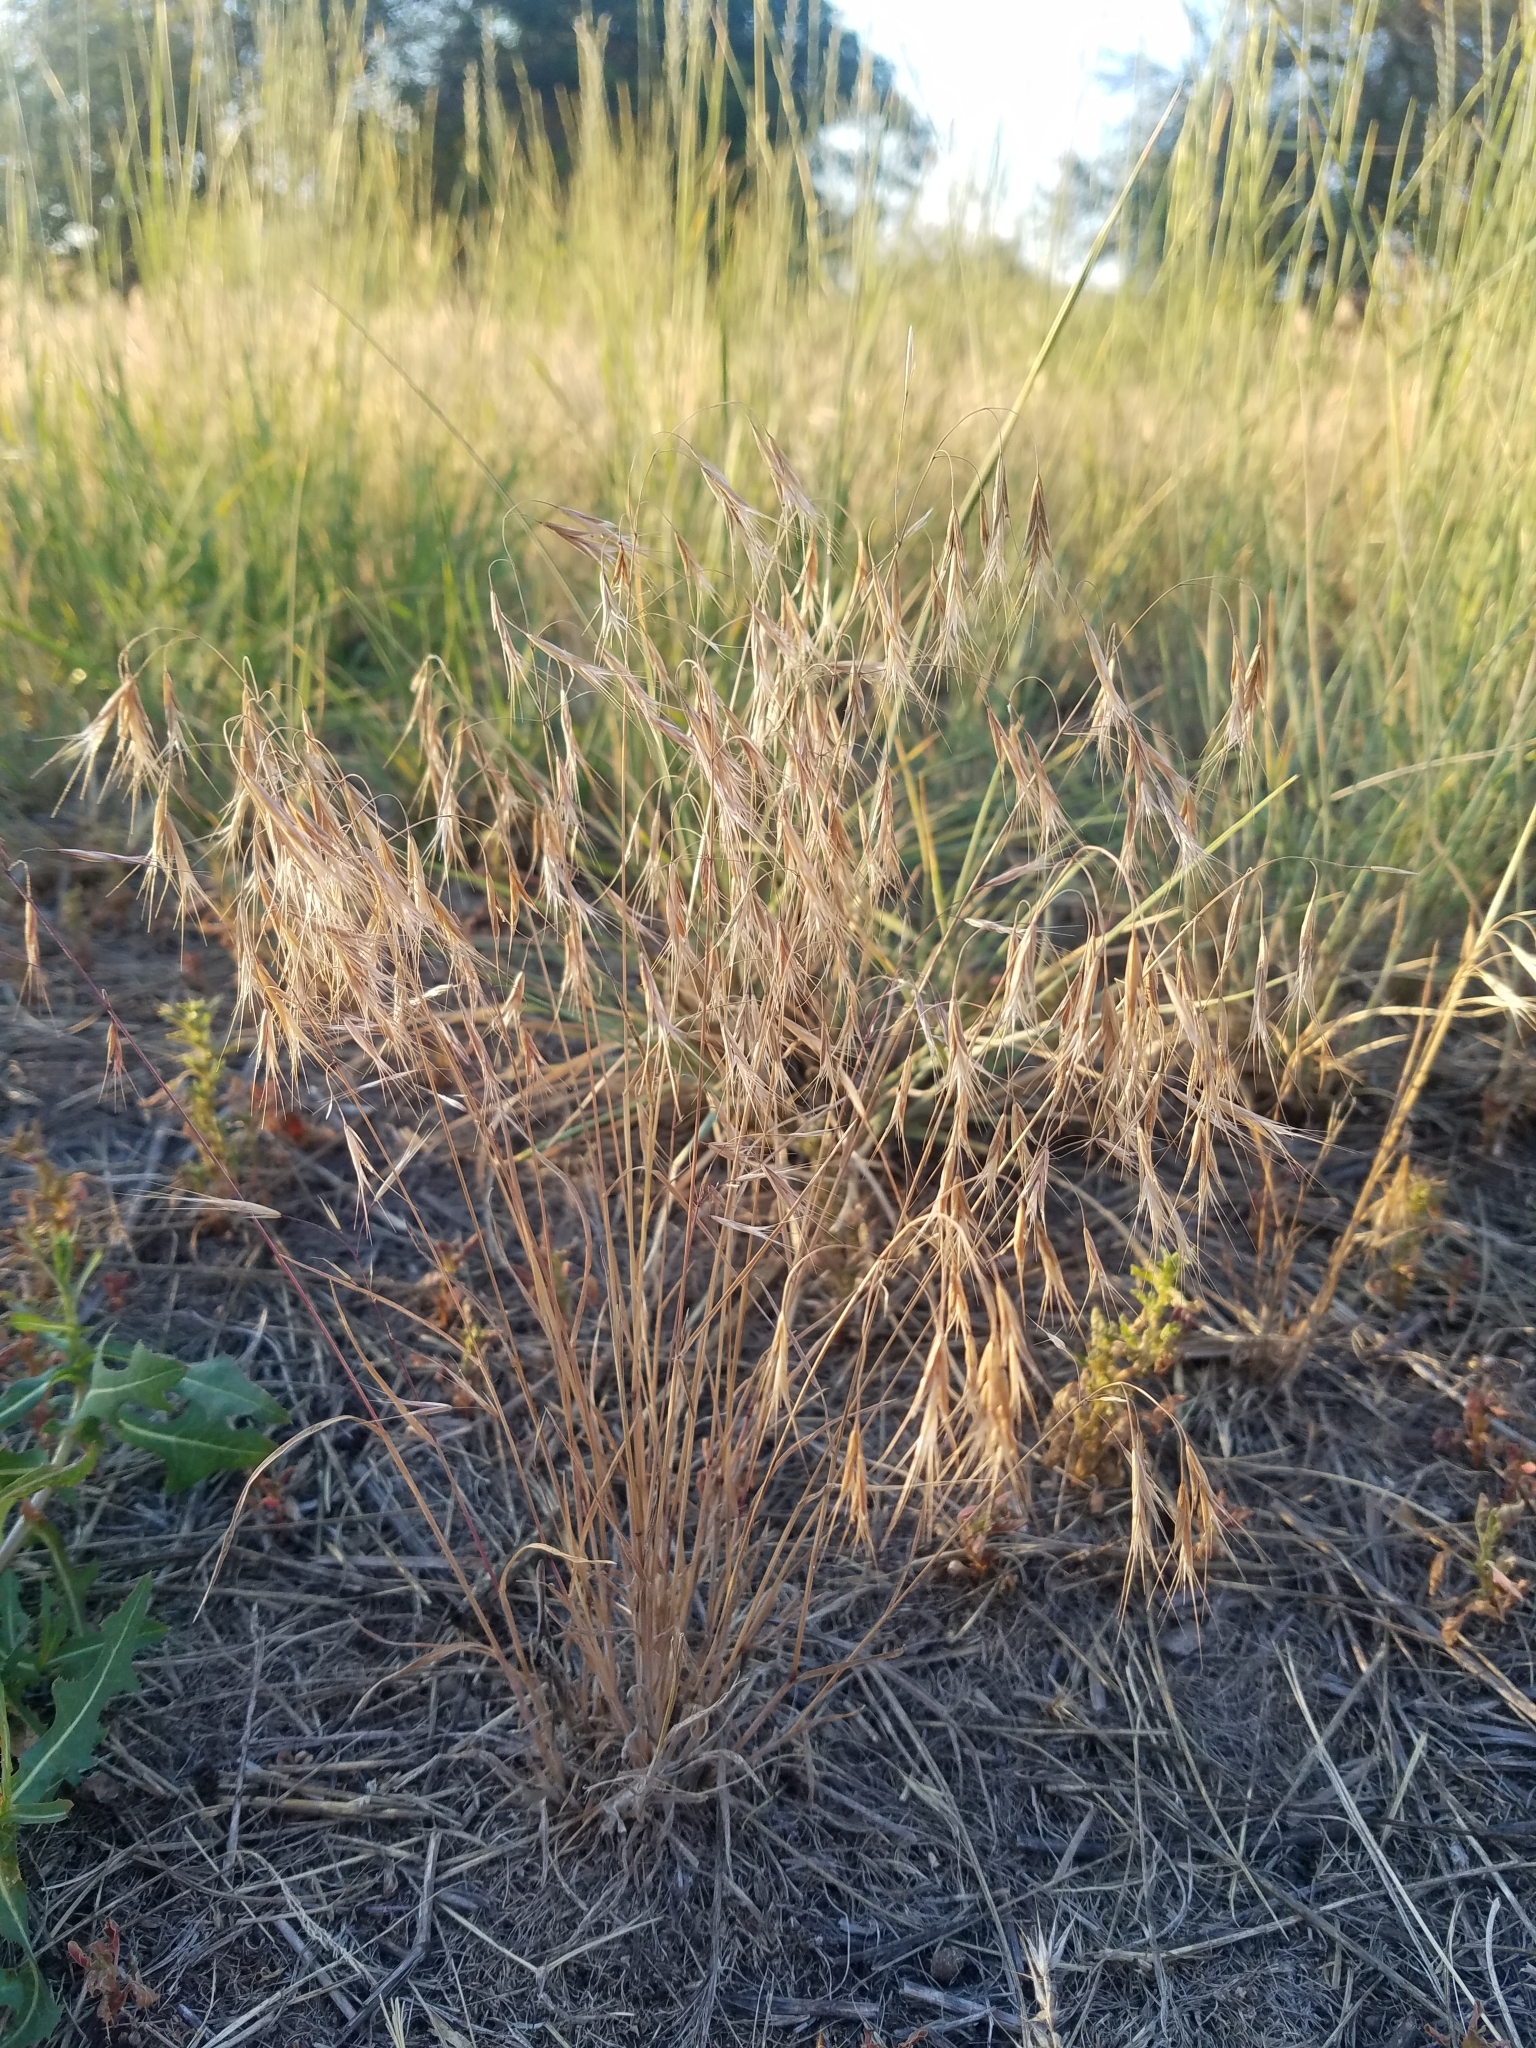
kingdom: Plantae
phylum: Tracheophyta
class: Liliopsida
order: Poales
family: Poaceae
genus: Bromus
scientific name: Bromus tectorum
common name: Cheatgrass
